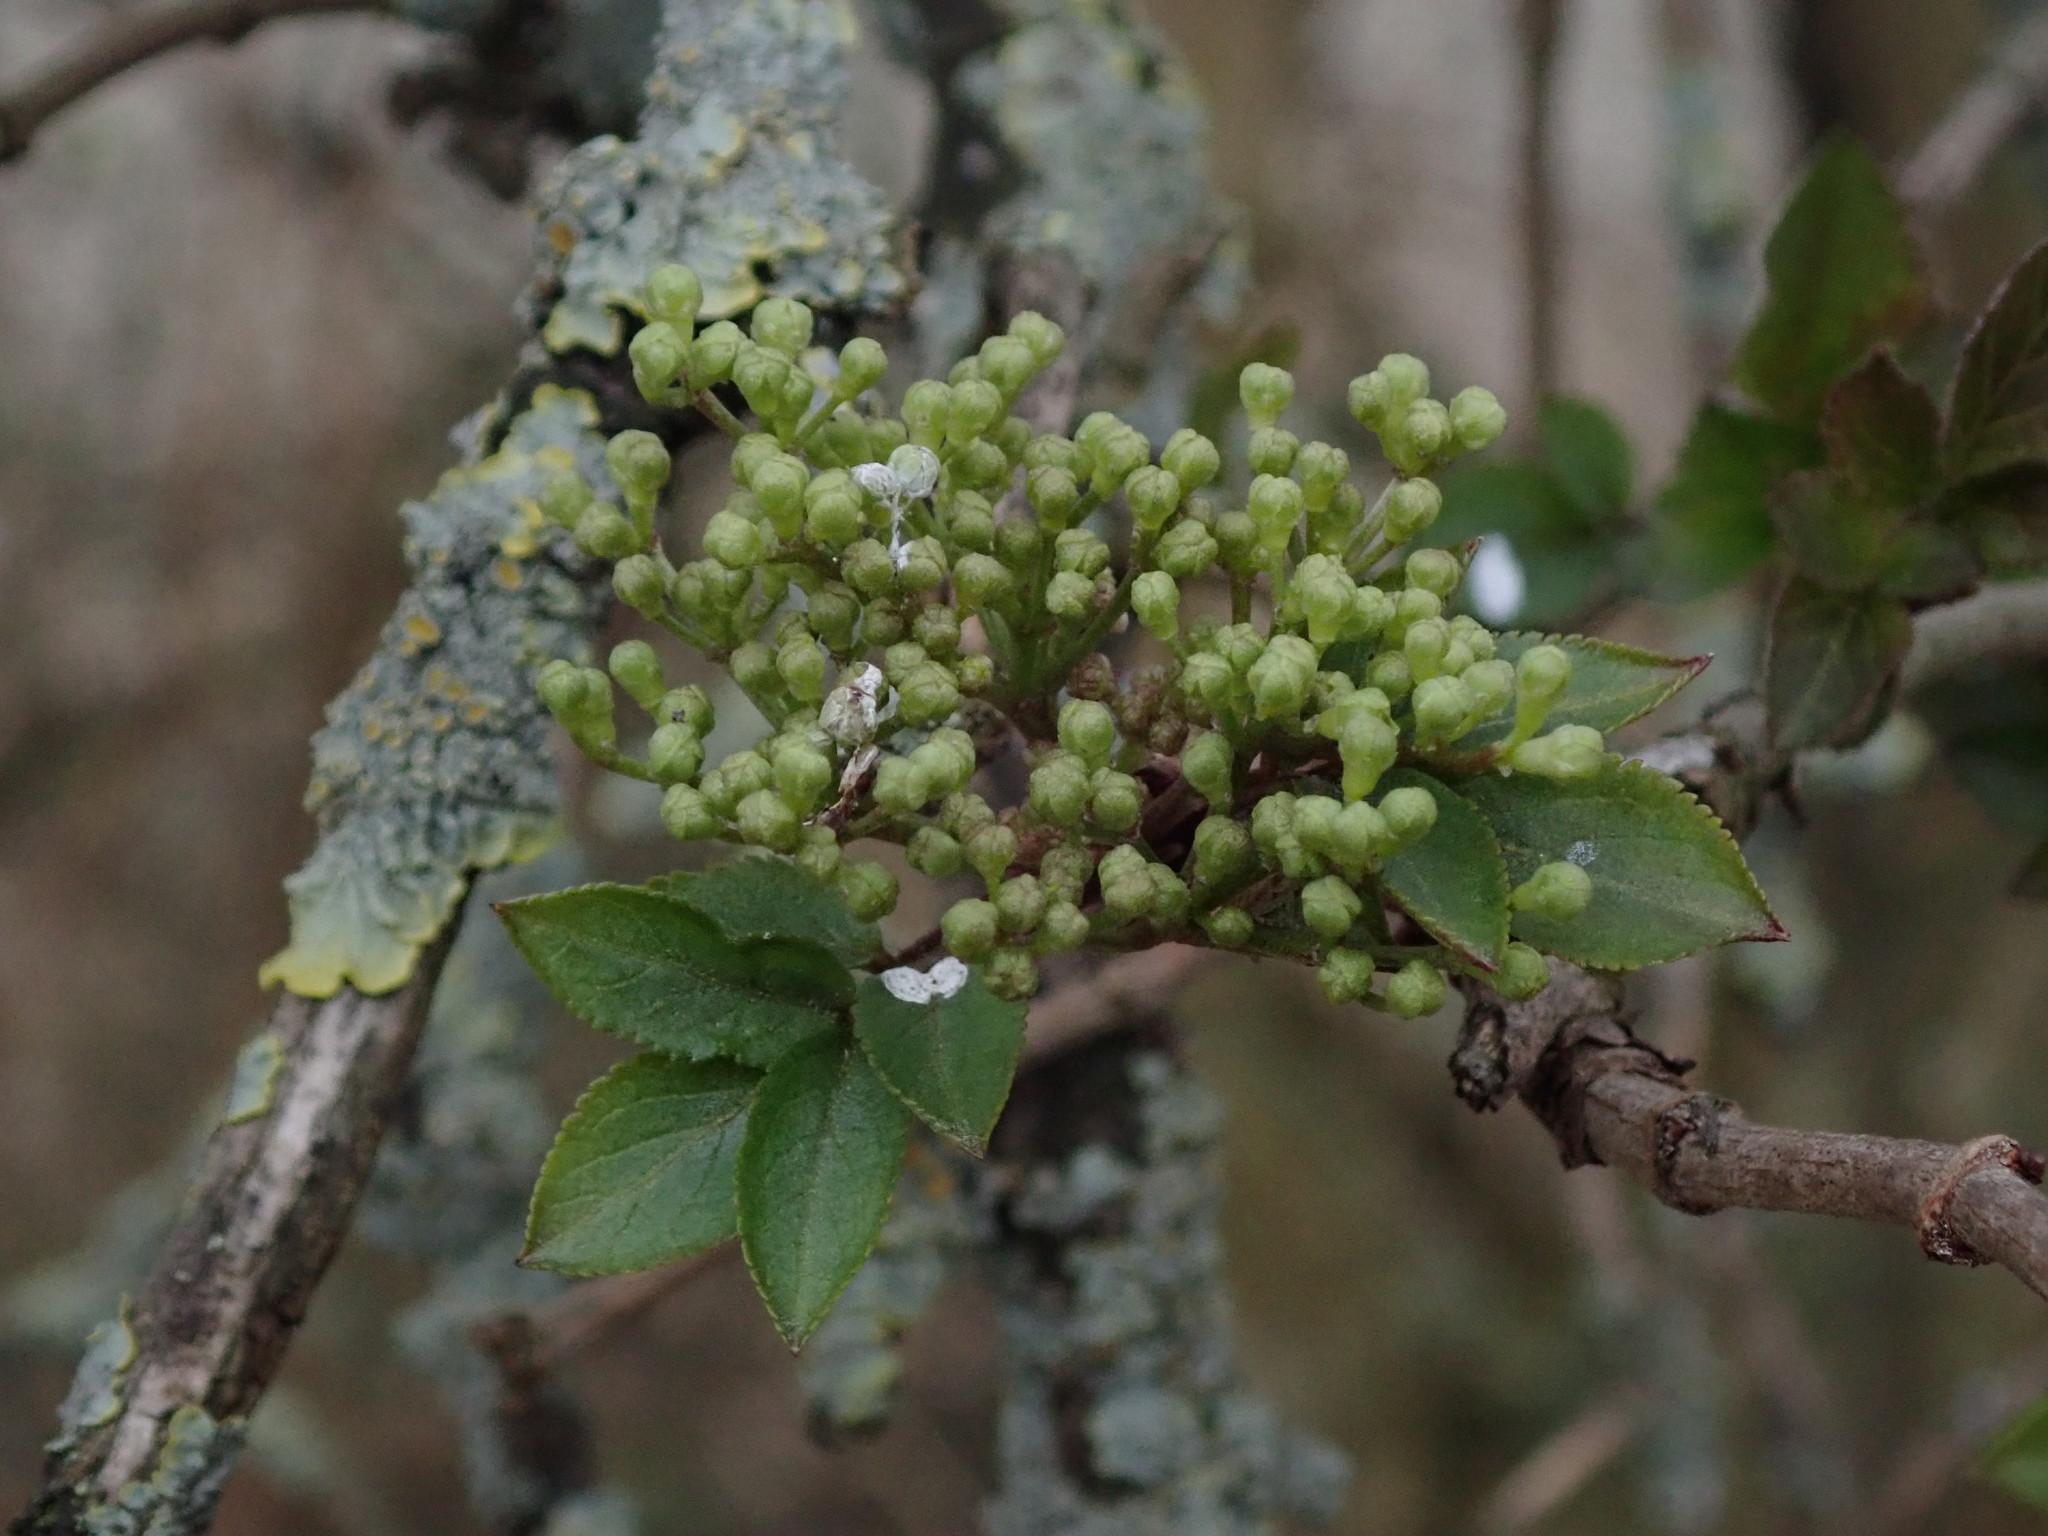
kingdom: Plantae
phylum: Tracheophyta
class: Magnoliopsida
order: Dipsacales
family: Viburnaceae
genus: Sambucus
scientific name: Sambucus nigra
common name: Elder
